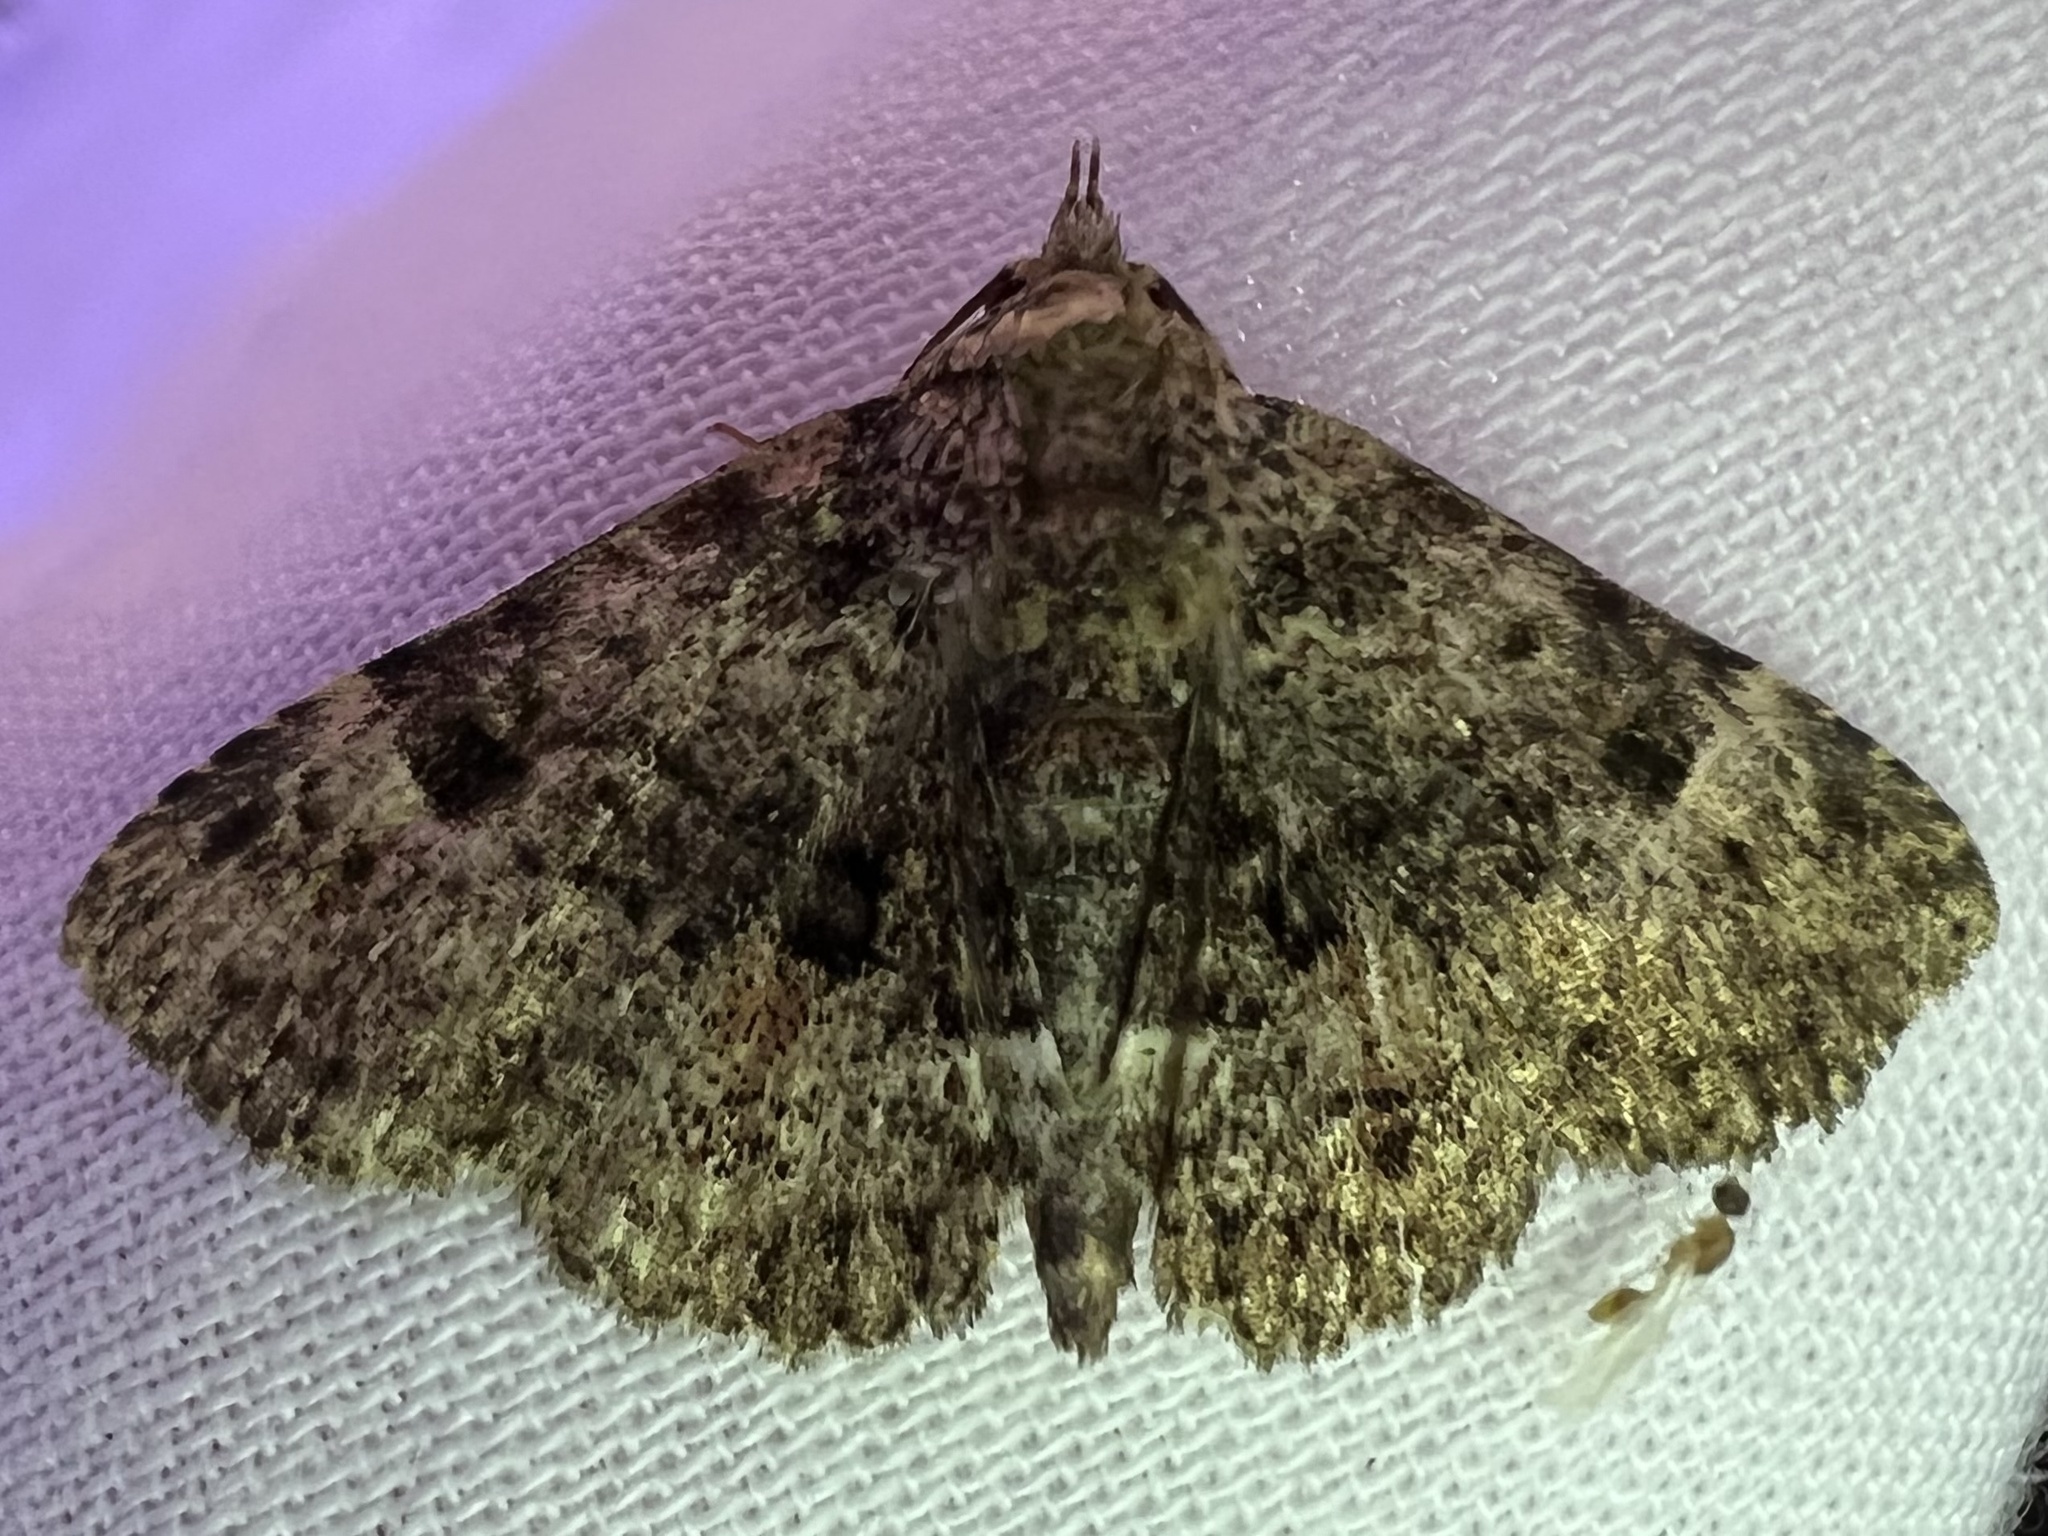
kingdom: Animalia
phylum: Arthropoda
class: Insecta
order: Lepidoptera
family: Erebidae
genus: Metalectra
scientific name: Metalectra discalis
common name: Common fungus moth
